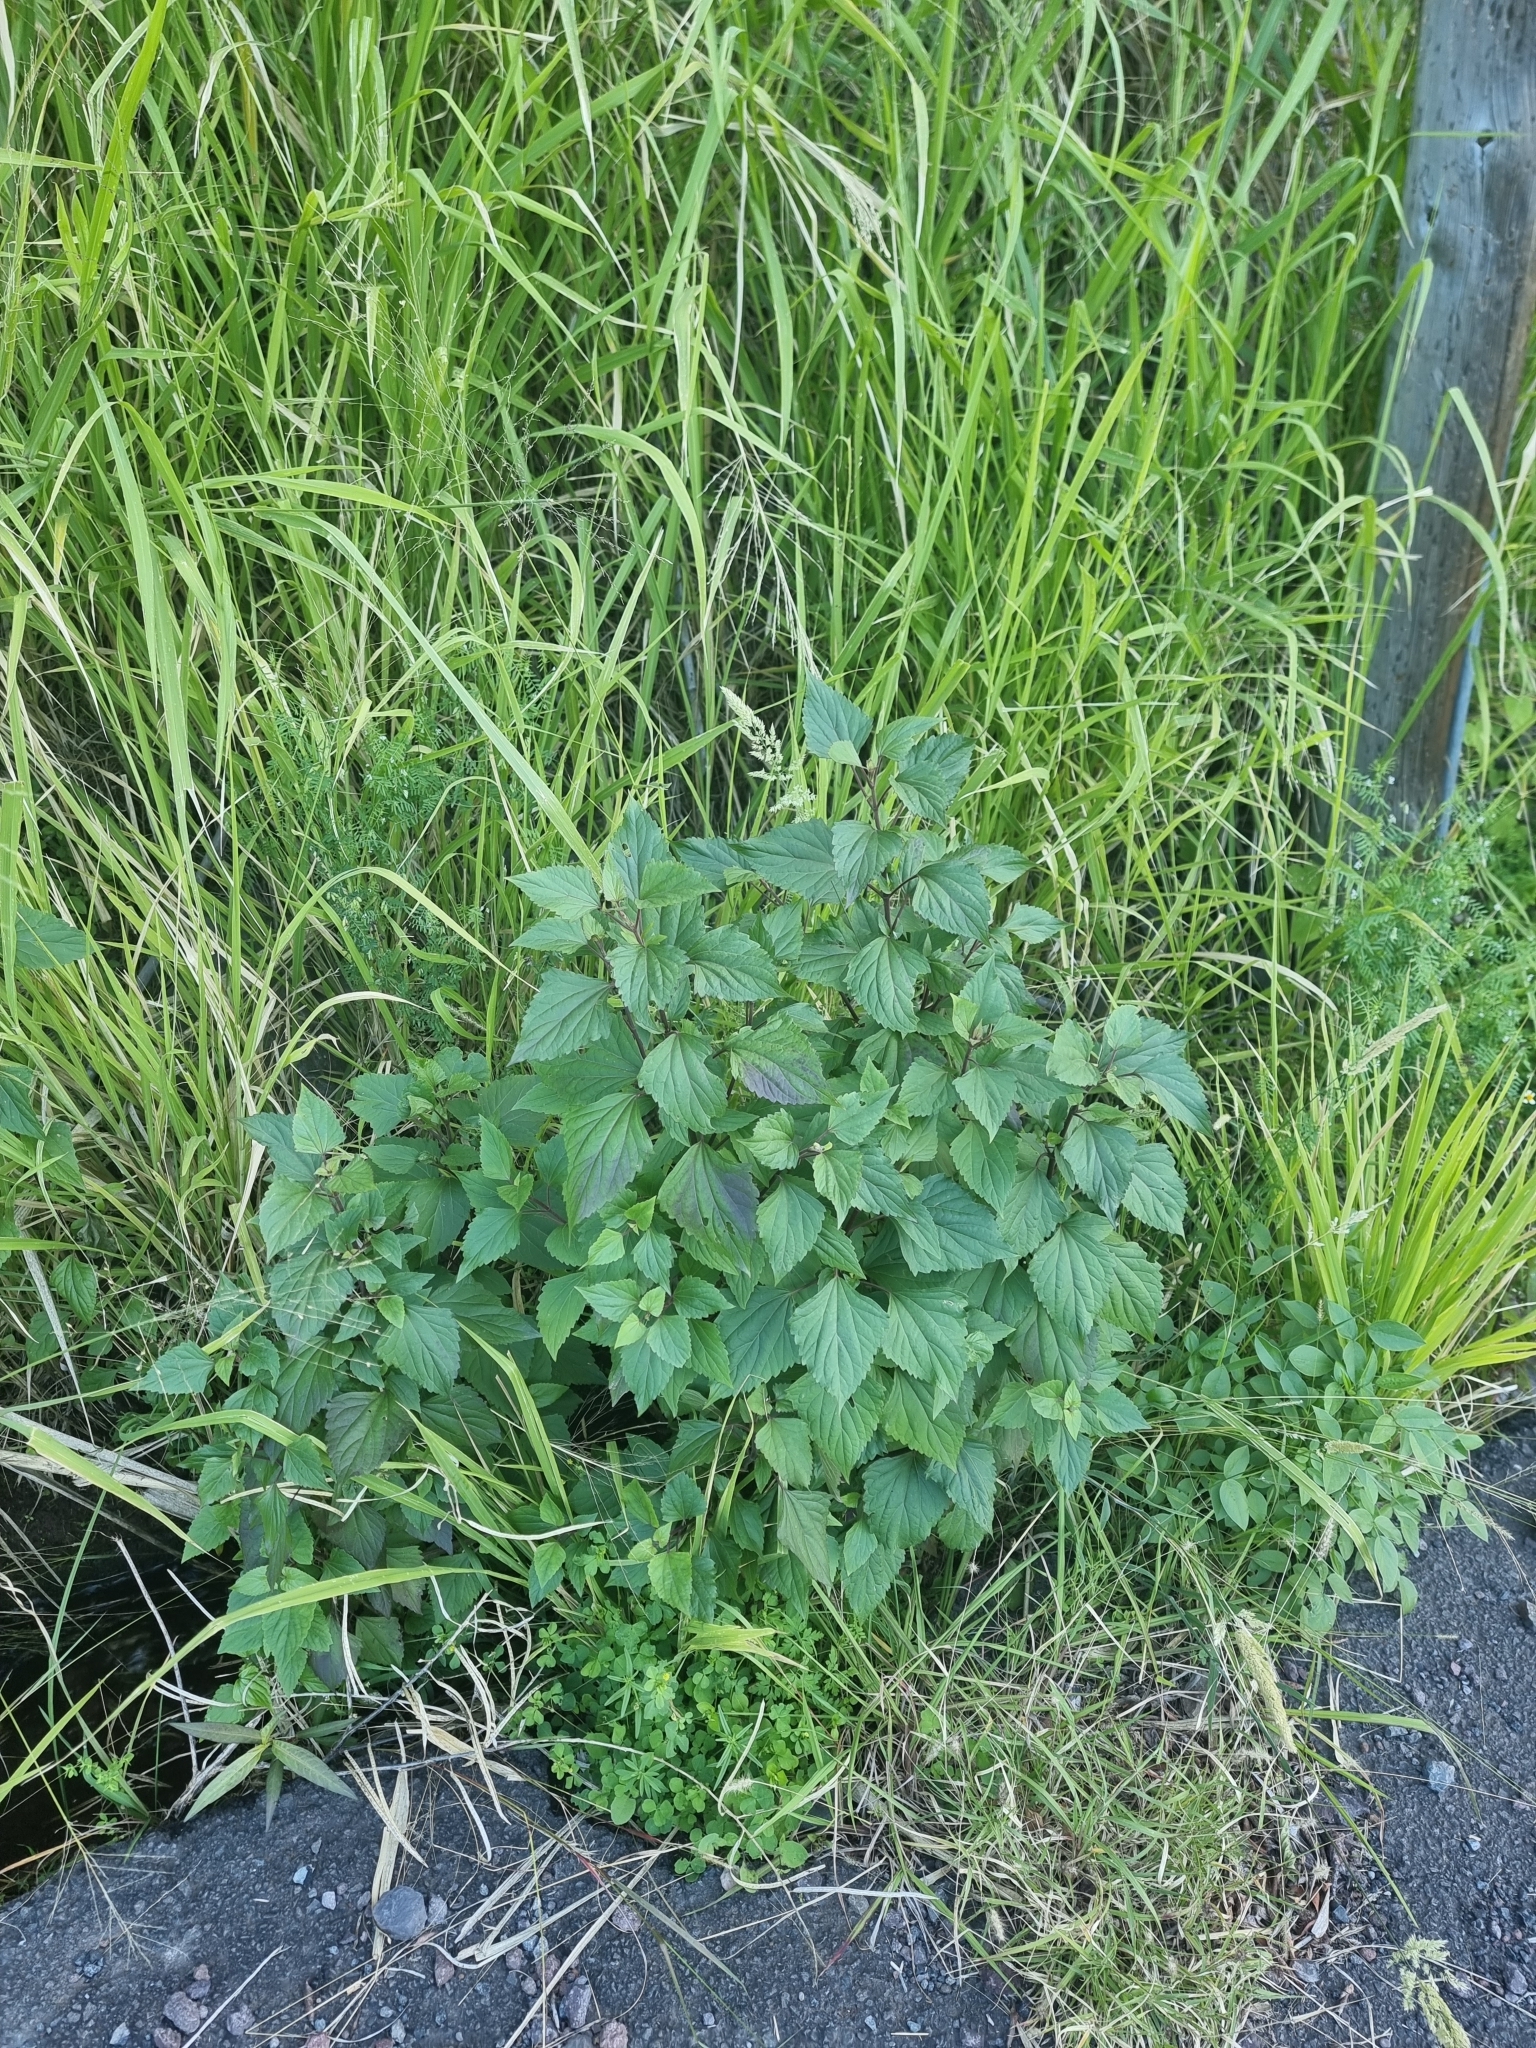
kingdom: Plantae
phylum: Tracheophyta
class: Magnoliopsida
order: Asterales
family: Asteraceae
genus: Ageratina
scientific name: Ageratina adenophora
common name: Sticky snakeroot
